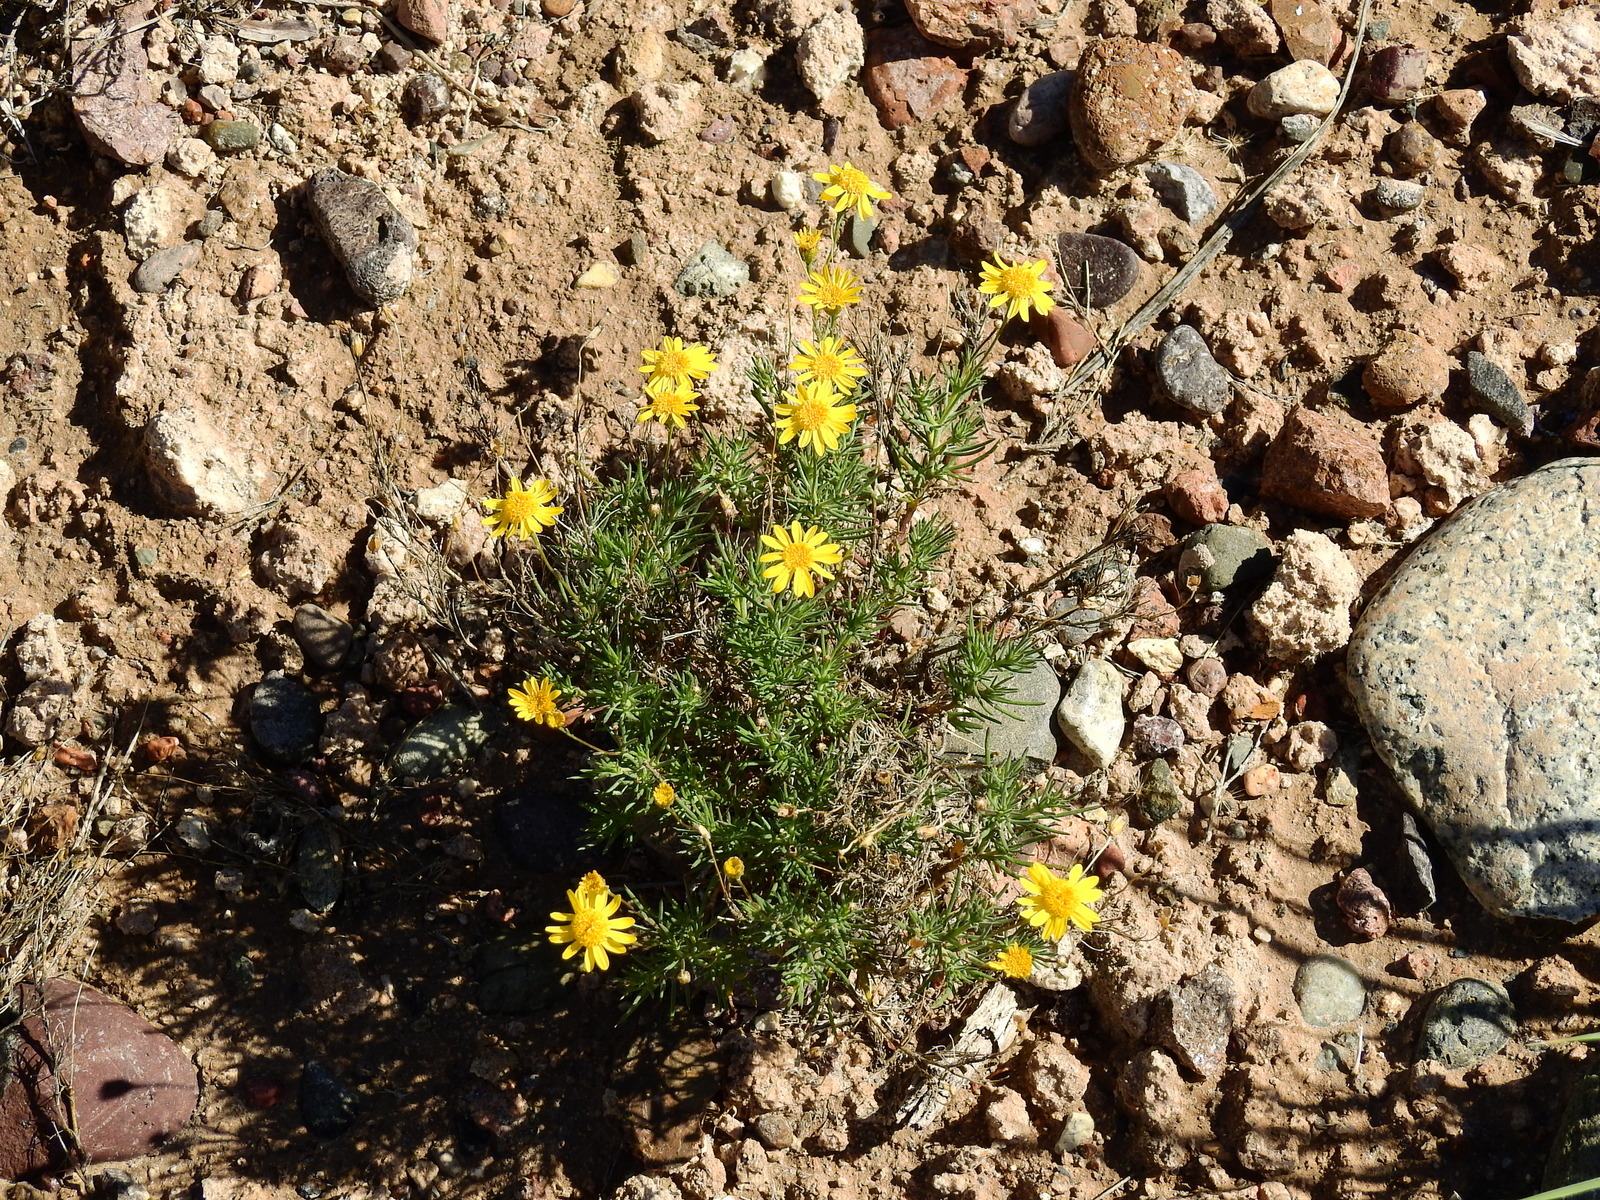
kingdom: Plantae
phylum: Tracheophyta
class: Magnoliopsida
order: Asterales
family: Asteraceae
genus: Thymophylla
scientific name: Thymophylla pentachaeta
